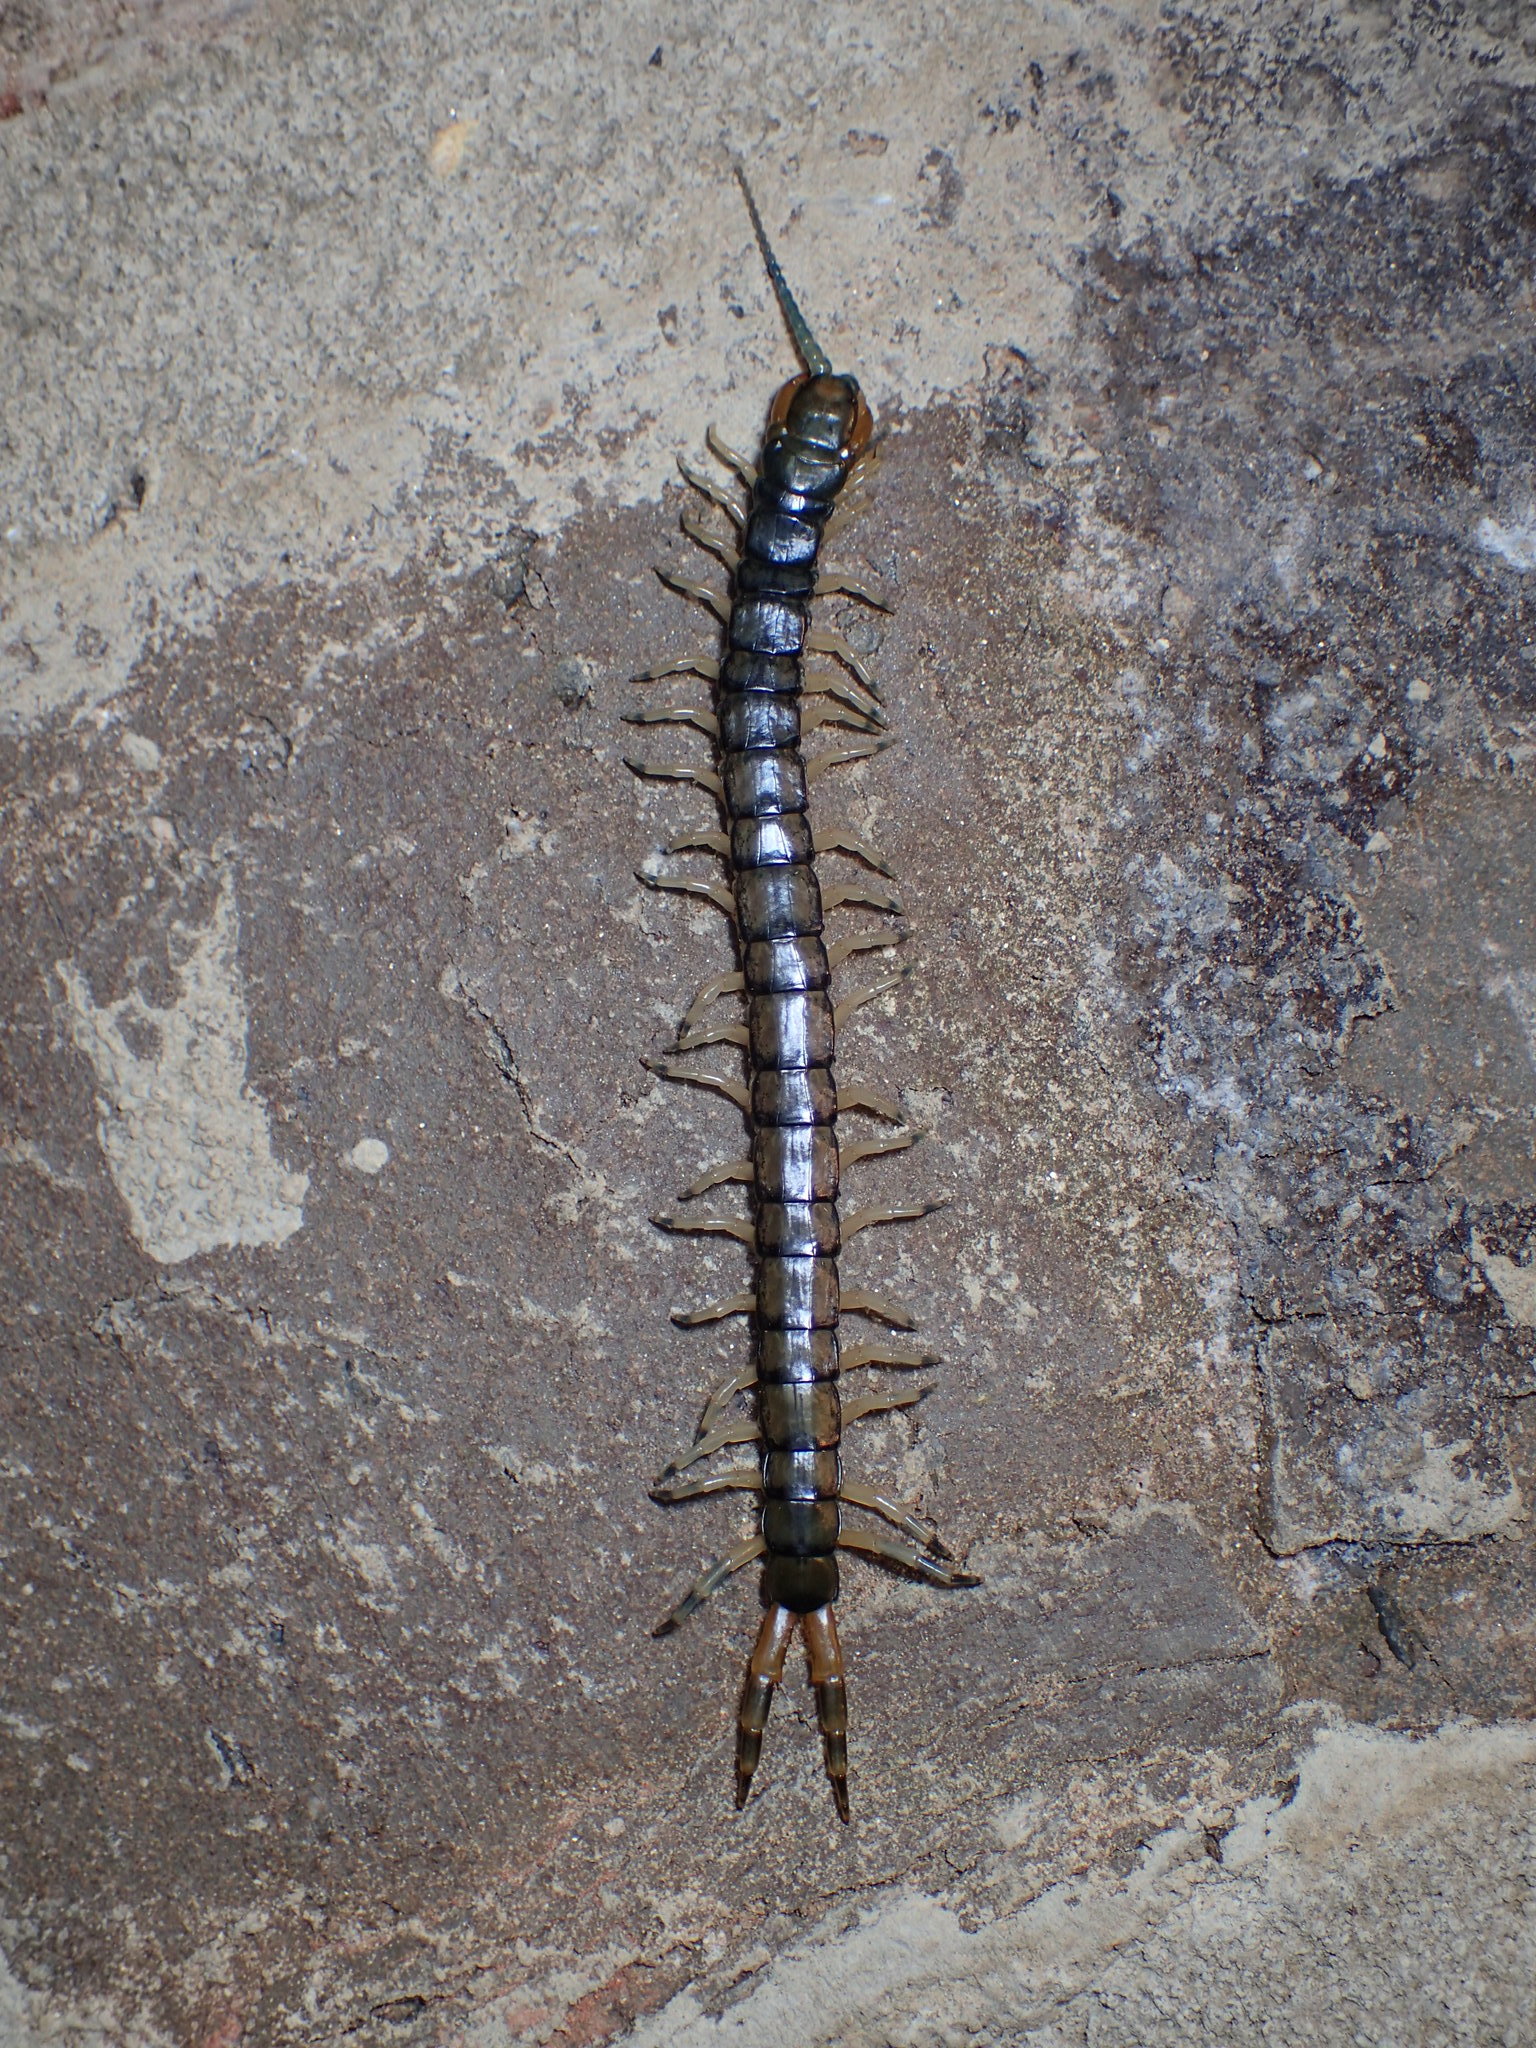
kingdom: Animalia
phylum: Arthropoda
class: Chilopoda
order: Scolopendromorpha
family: Scolopendridae
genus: Hemiscolopendra
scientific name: Hemiscolopendra marginata
